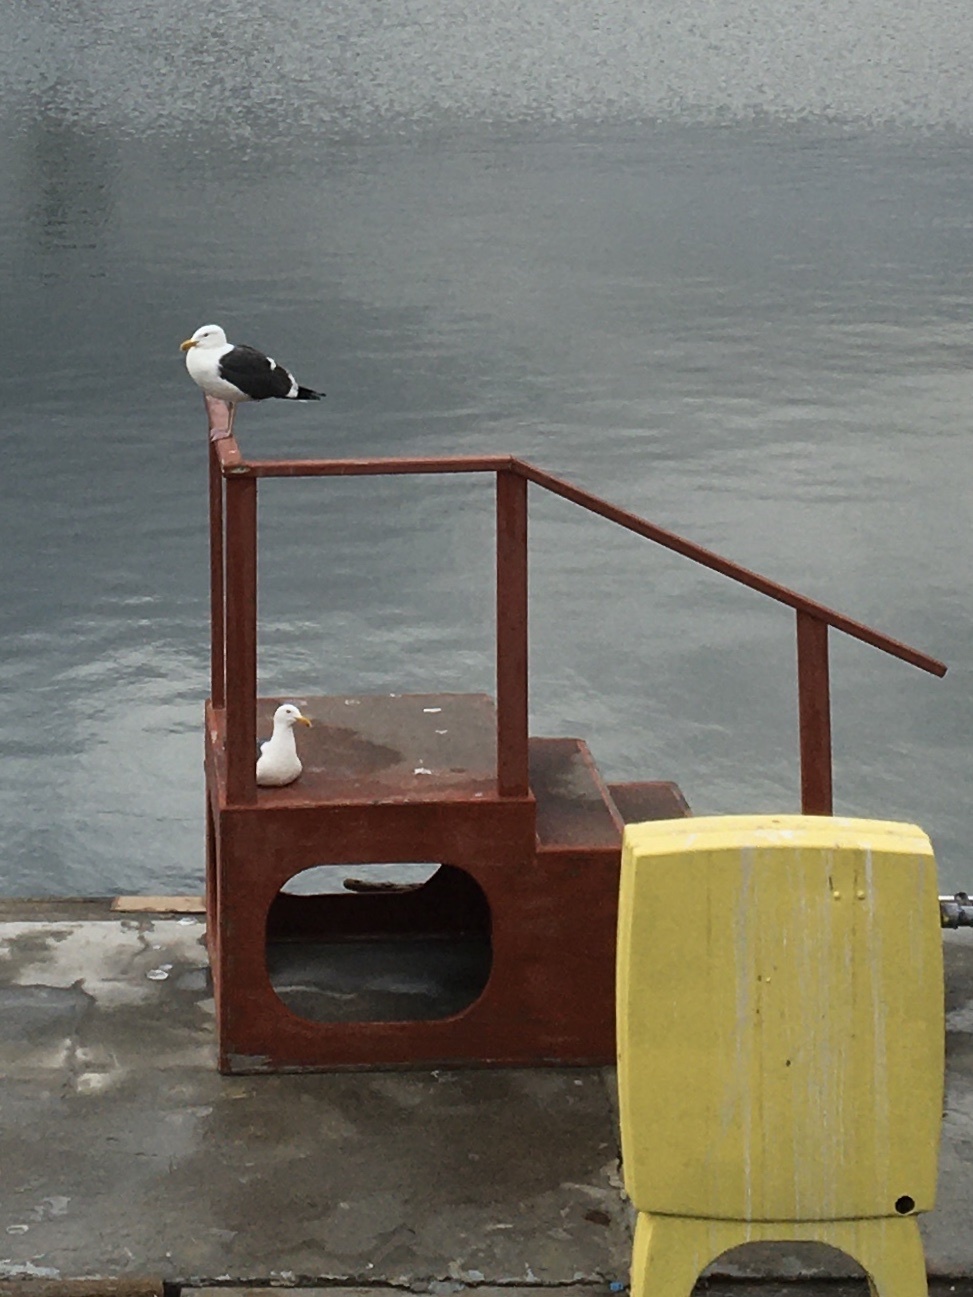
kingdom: Animalia
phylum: Chordata
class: Aves
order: Charadriiformes
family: Laridae
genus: Larus
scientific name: Larus occidentalis
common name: Western gull
